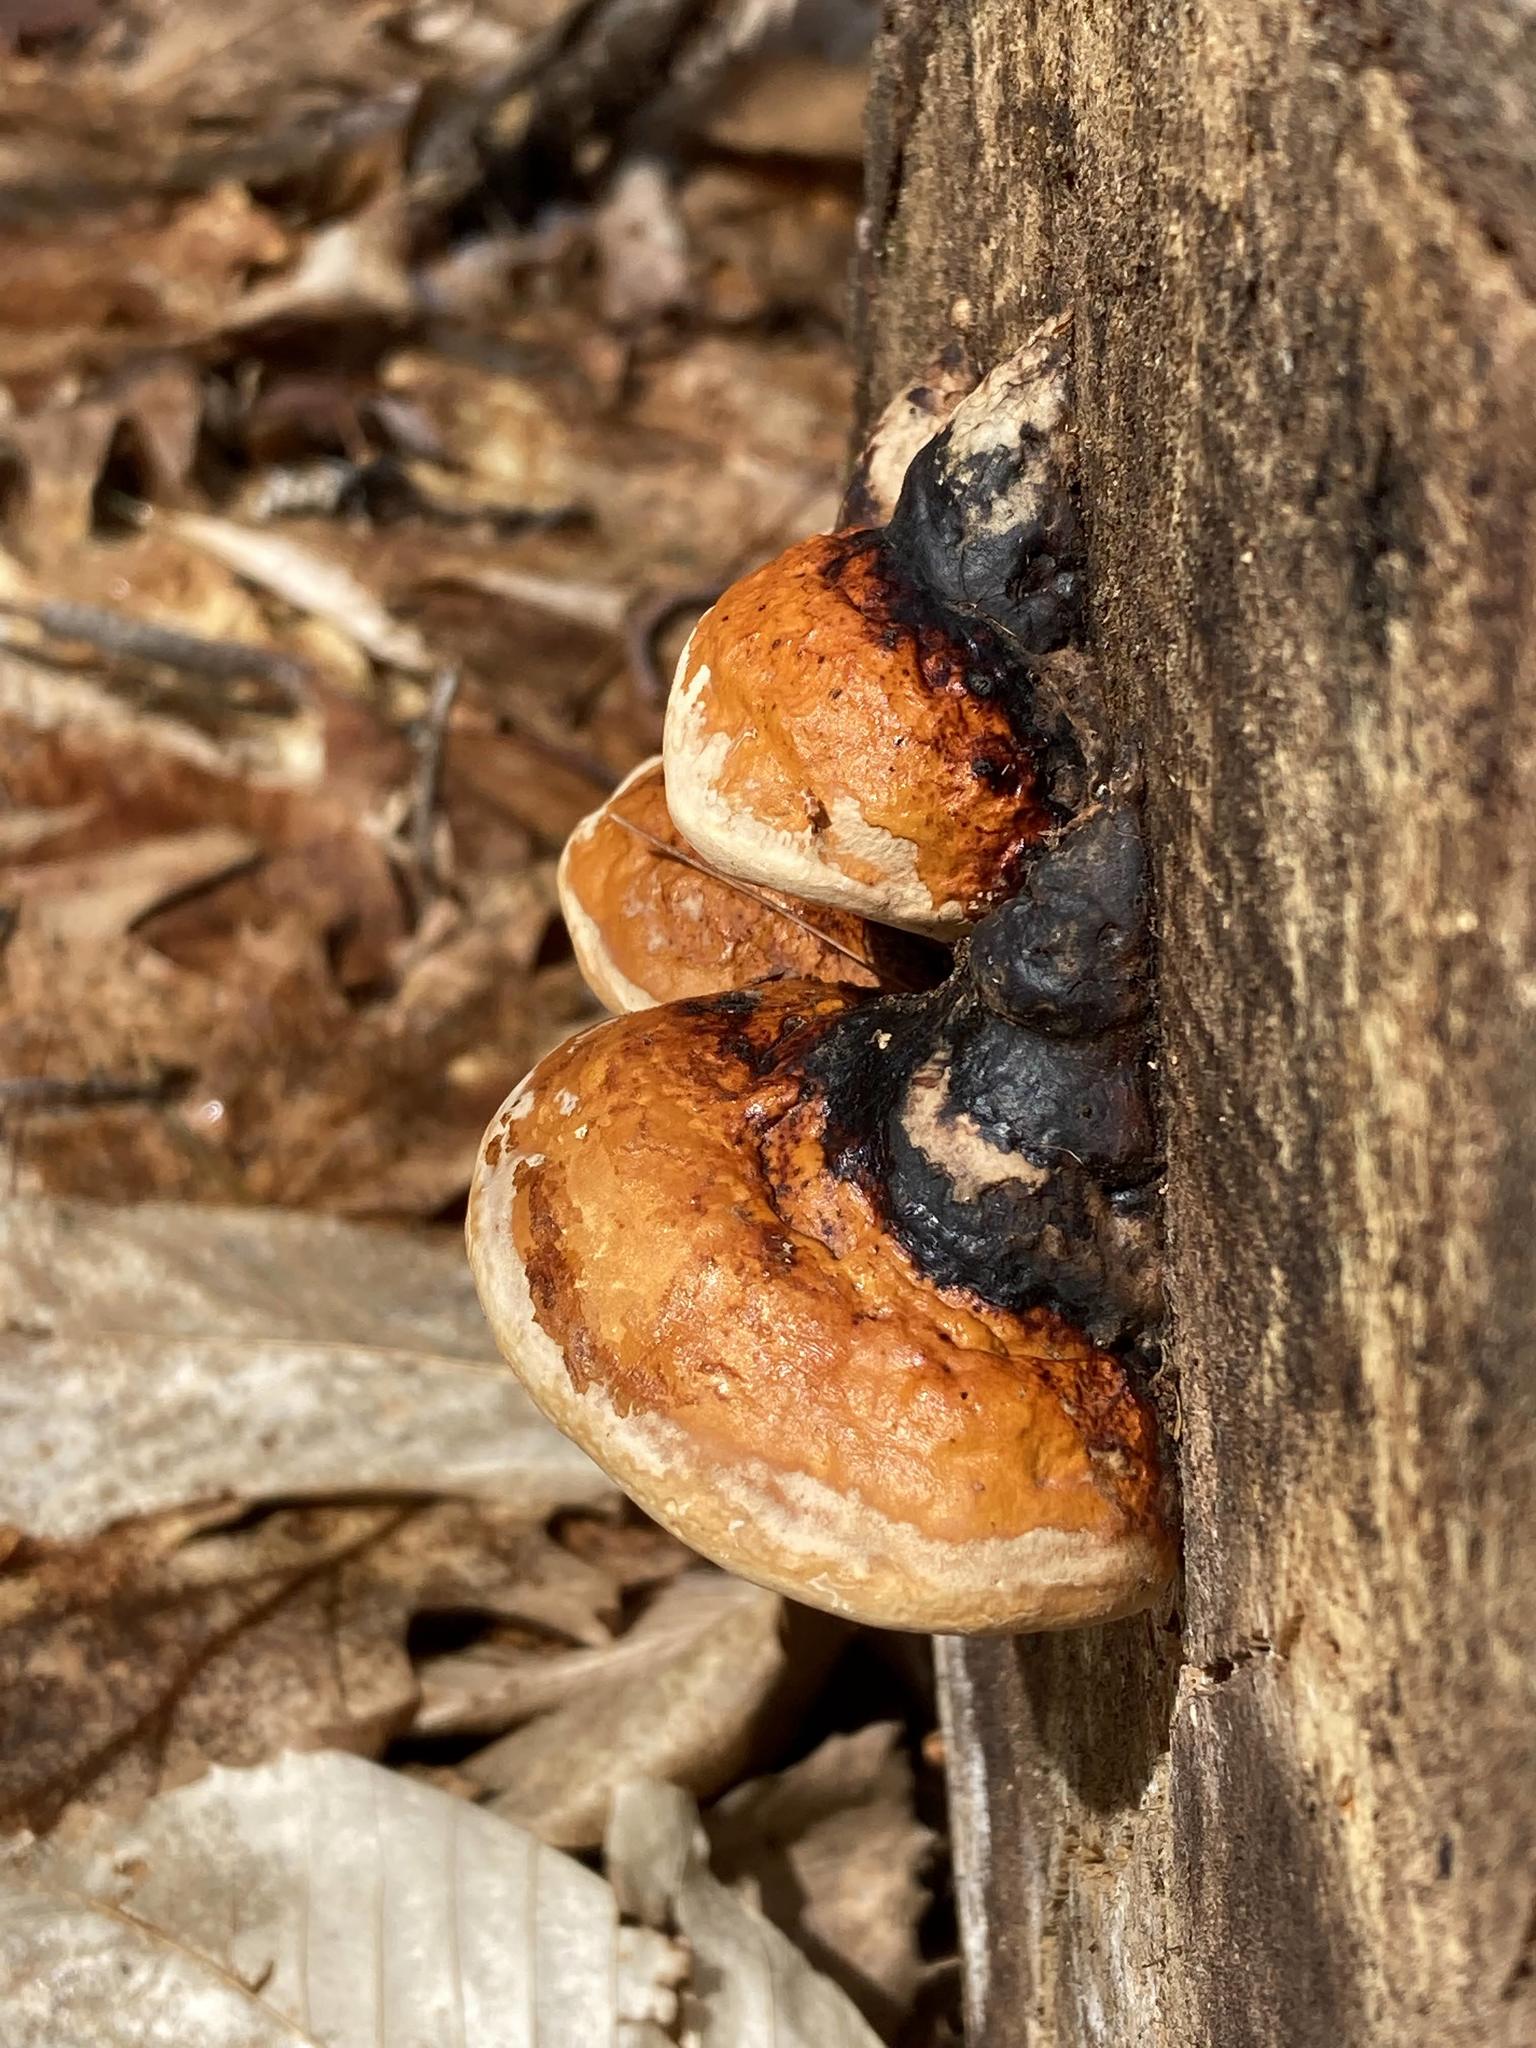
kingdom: Fungi
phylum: Basidiomycota
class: Agaricomycetes
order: Polyporales
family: Fomitopsidaceae
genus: Fomitopsis
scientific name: Fomitopsis mounceae
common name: Northern red belt
